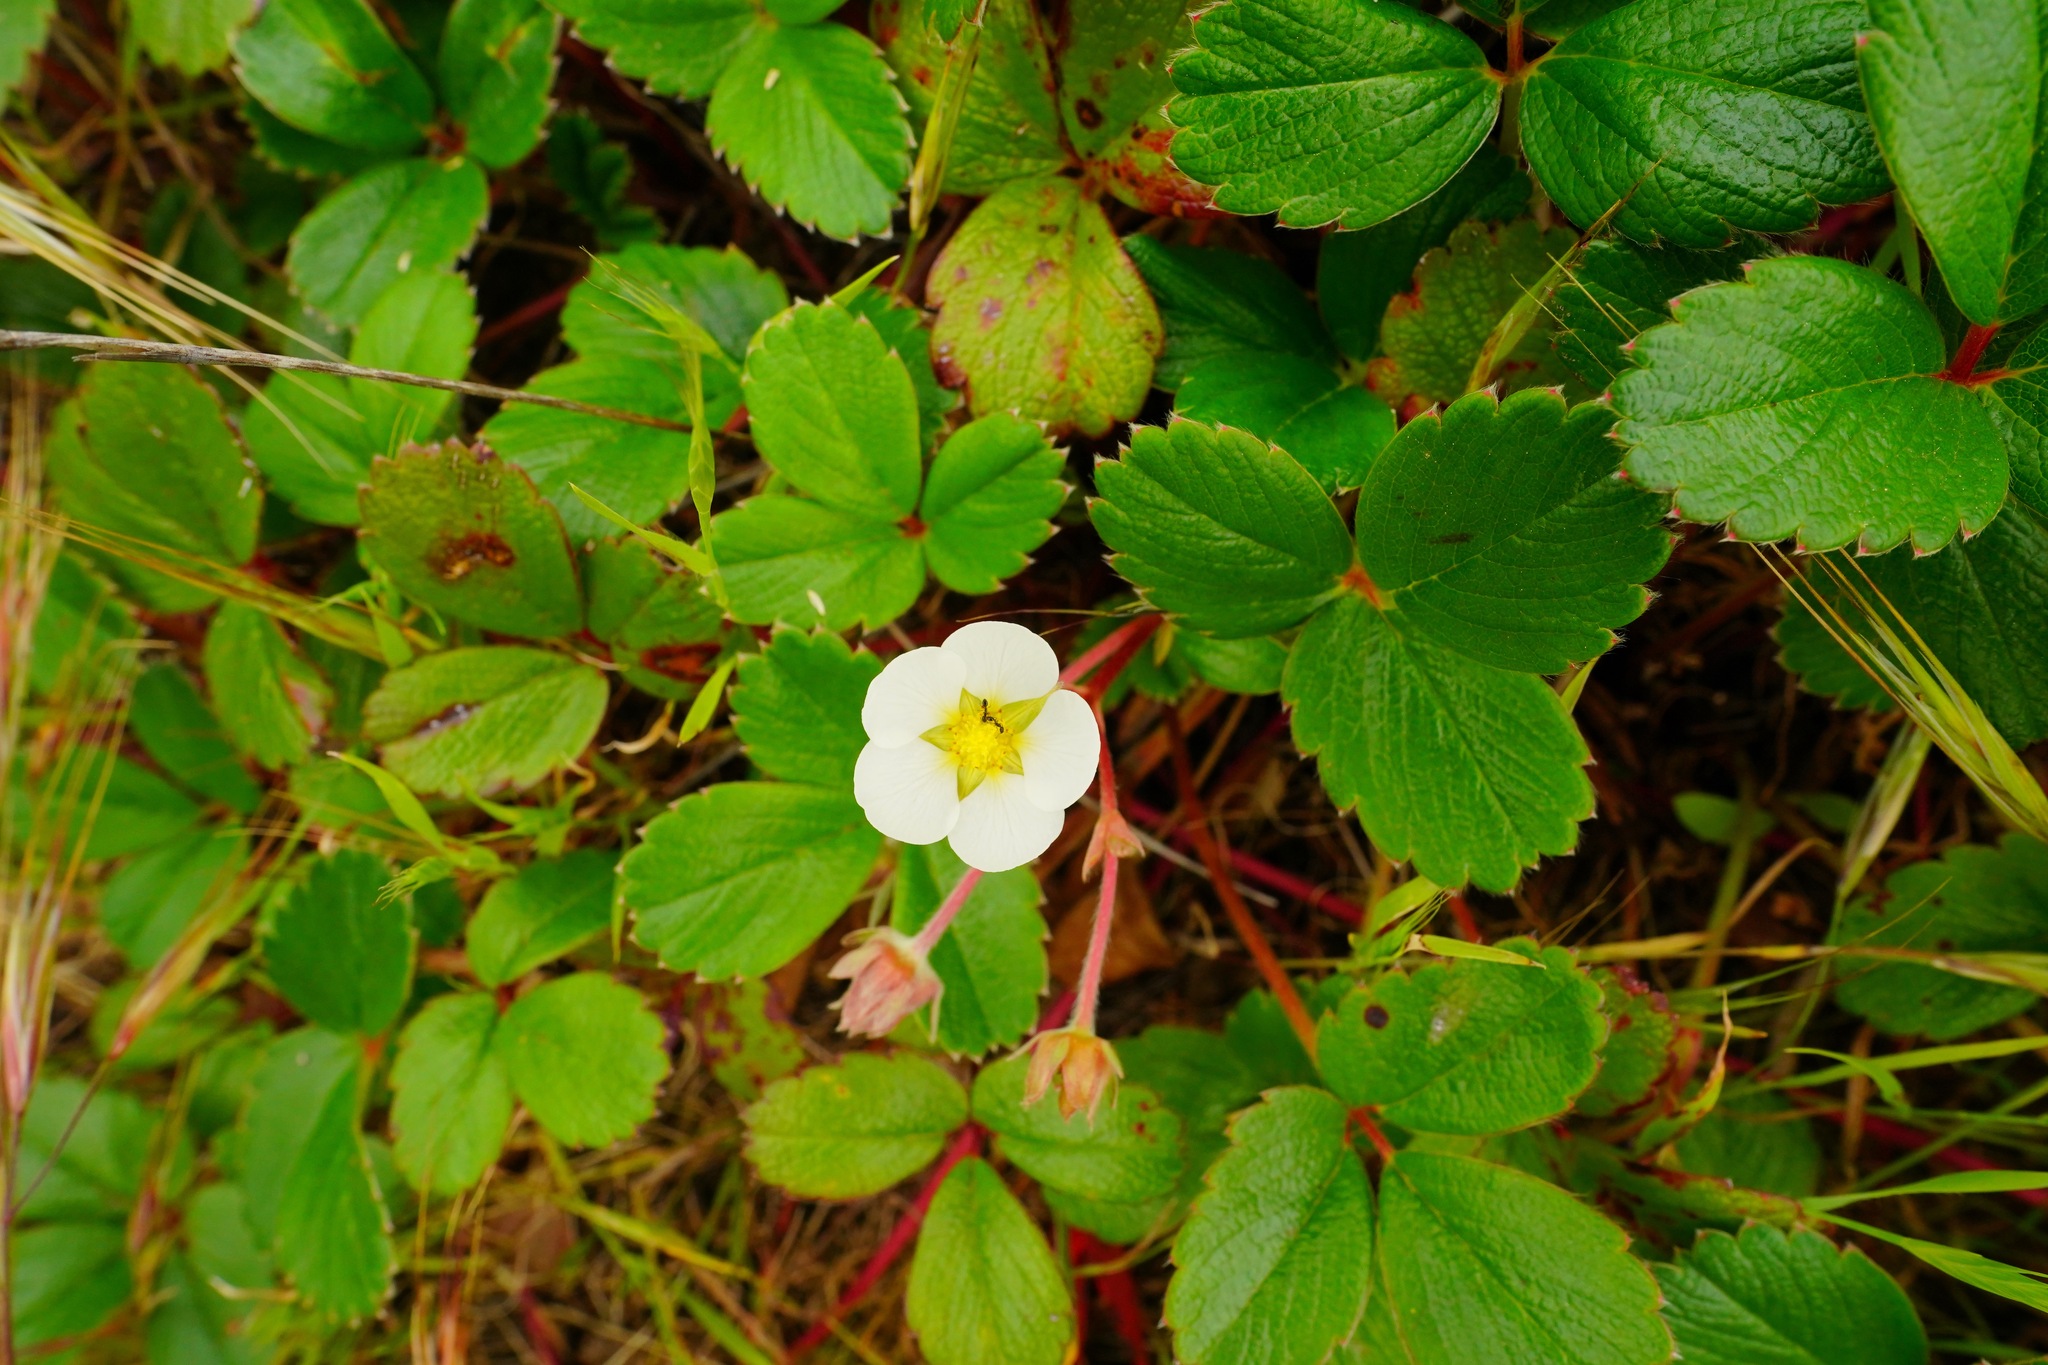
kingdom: Plantae
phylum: Tracheophyta
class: Magnoliopsida
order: Rosales
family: Rosaceae
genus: Fragaria
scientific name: Fragaria chiloensis
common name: Beach strawberry
